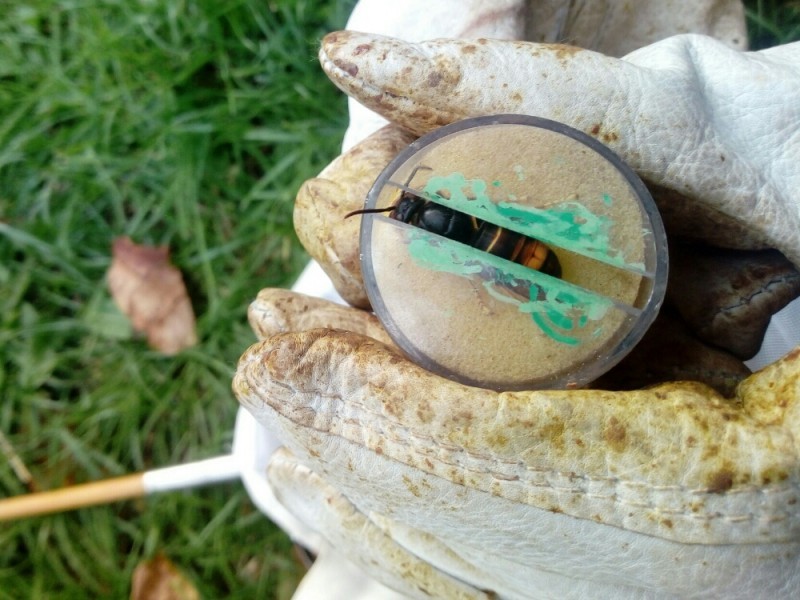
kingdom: Animalia
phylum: Arthropoda
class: Insecta
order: Hymenoptera
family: Vespidae
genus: Vespa
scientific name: Vespa velutina
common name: Asian hornet
